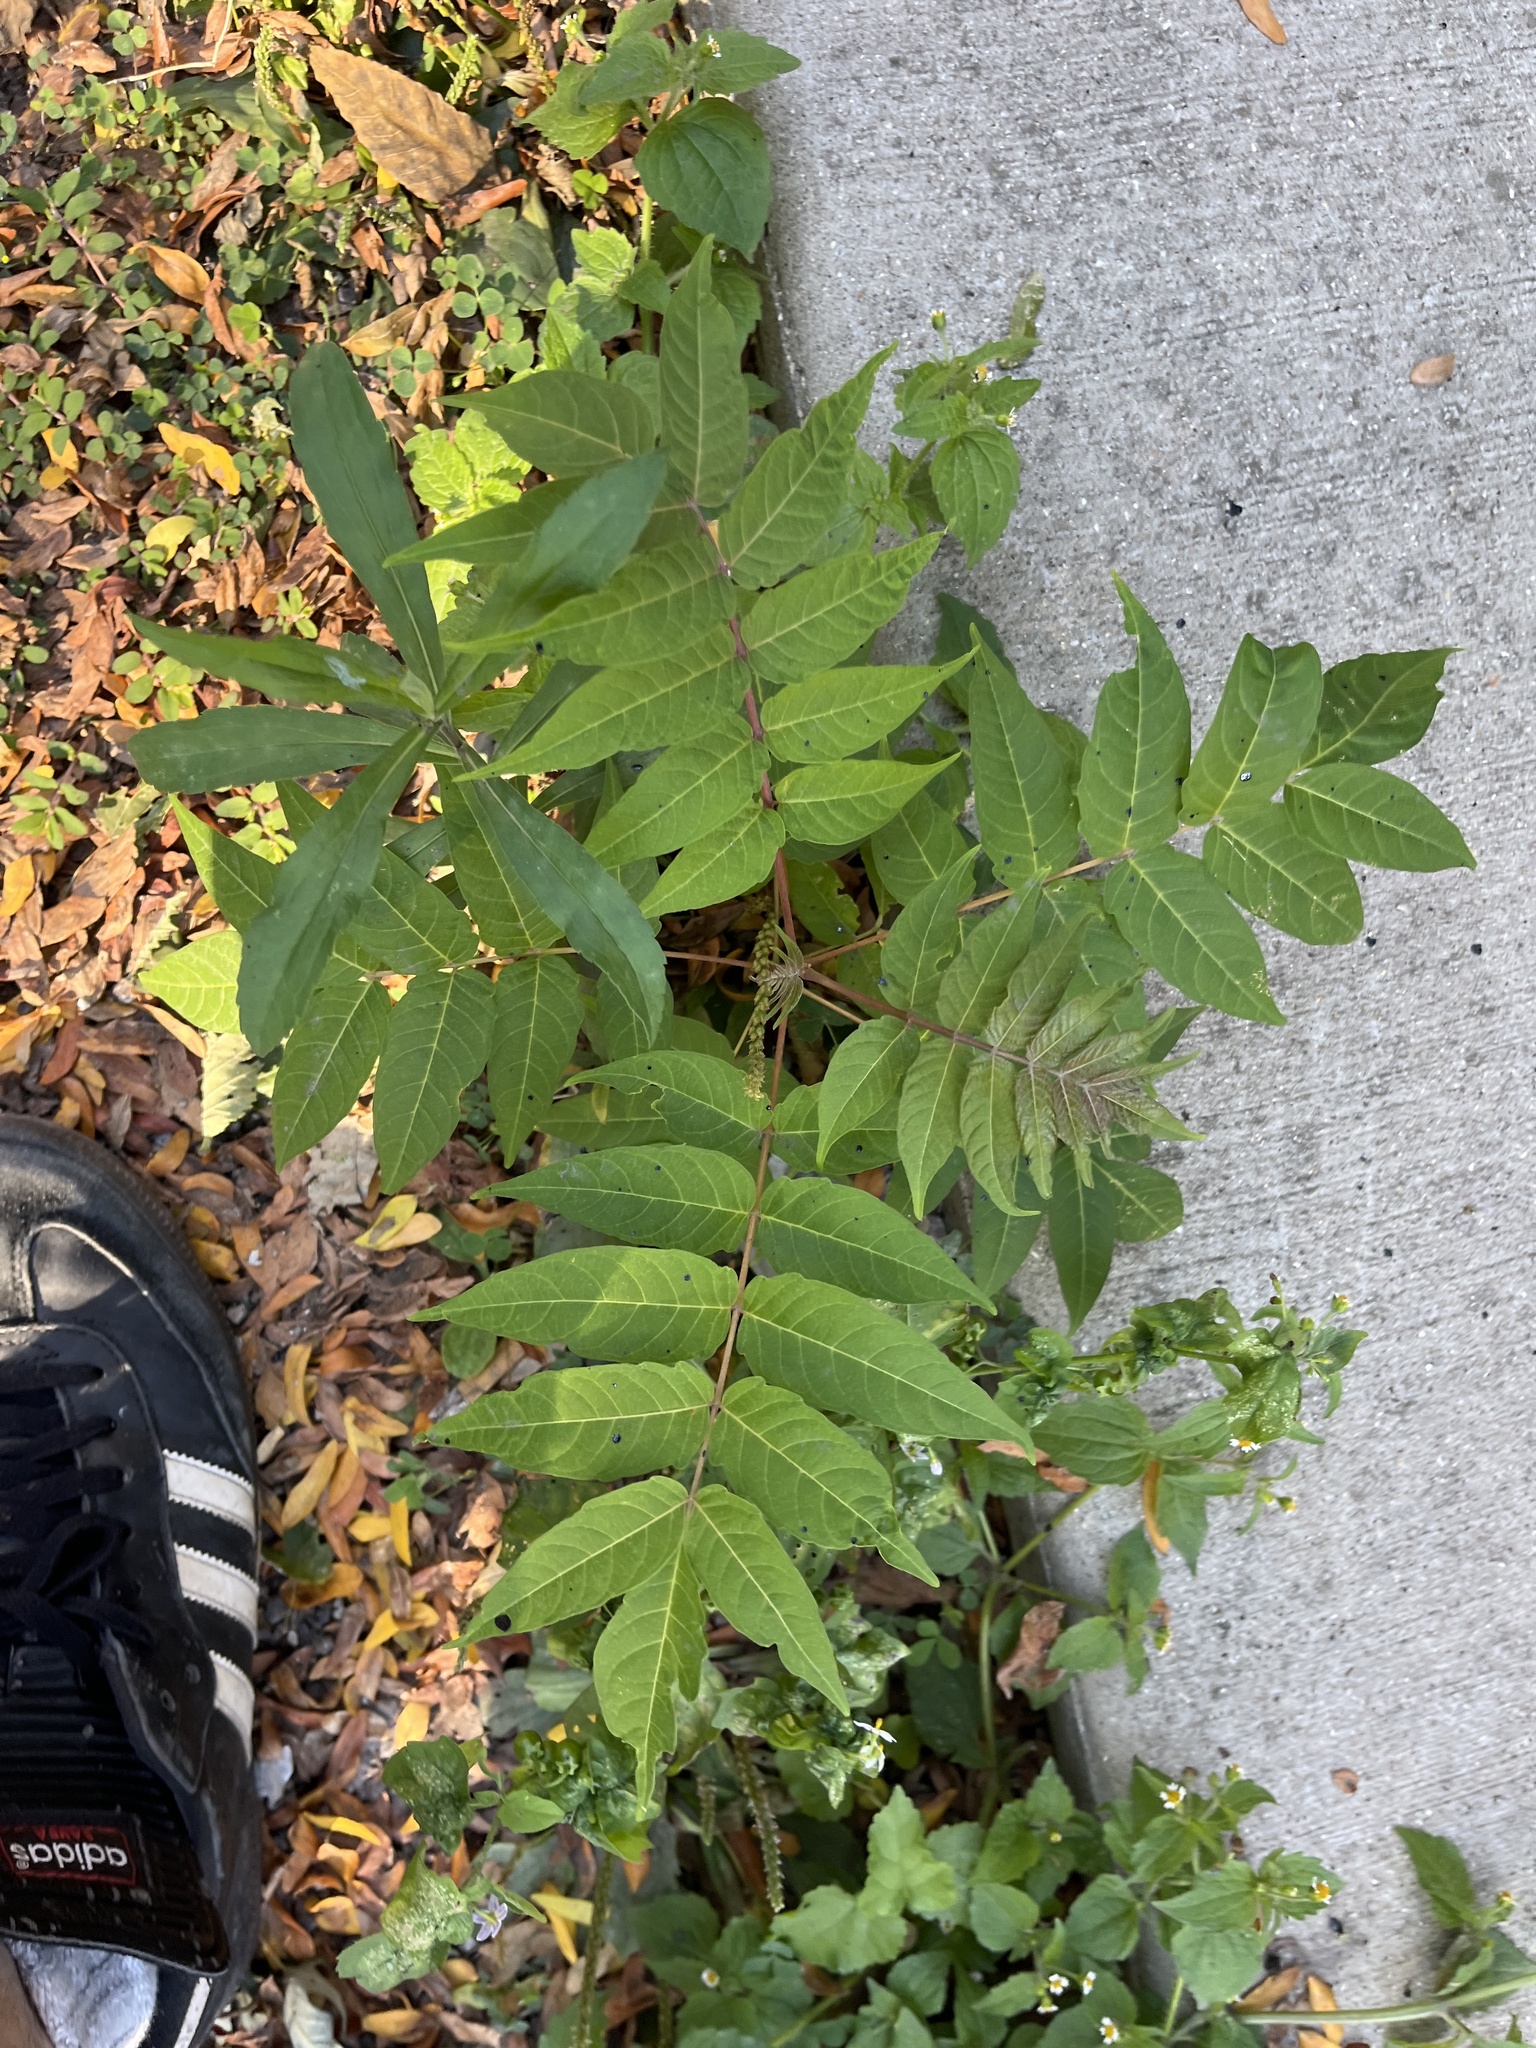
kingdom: Plantae
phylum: Tracheophyta
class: Magnoliopsida
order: Sapindales
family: Simaroubaceae
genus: Ailanthus
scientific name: Ailanthus altissima
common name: Tree-of-heaven
